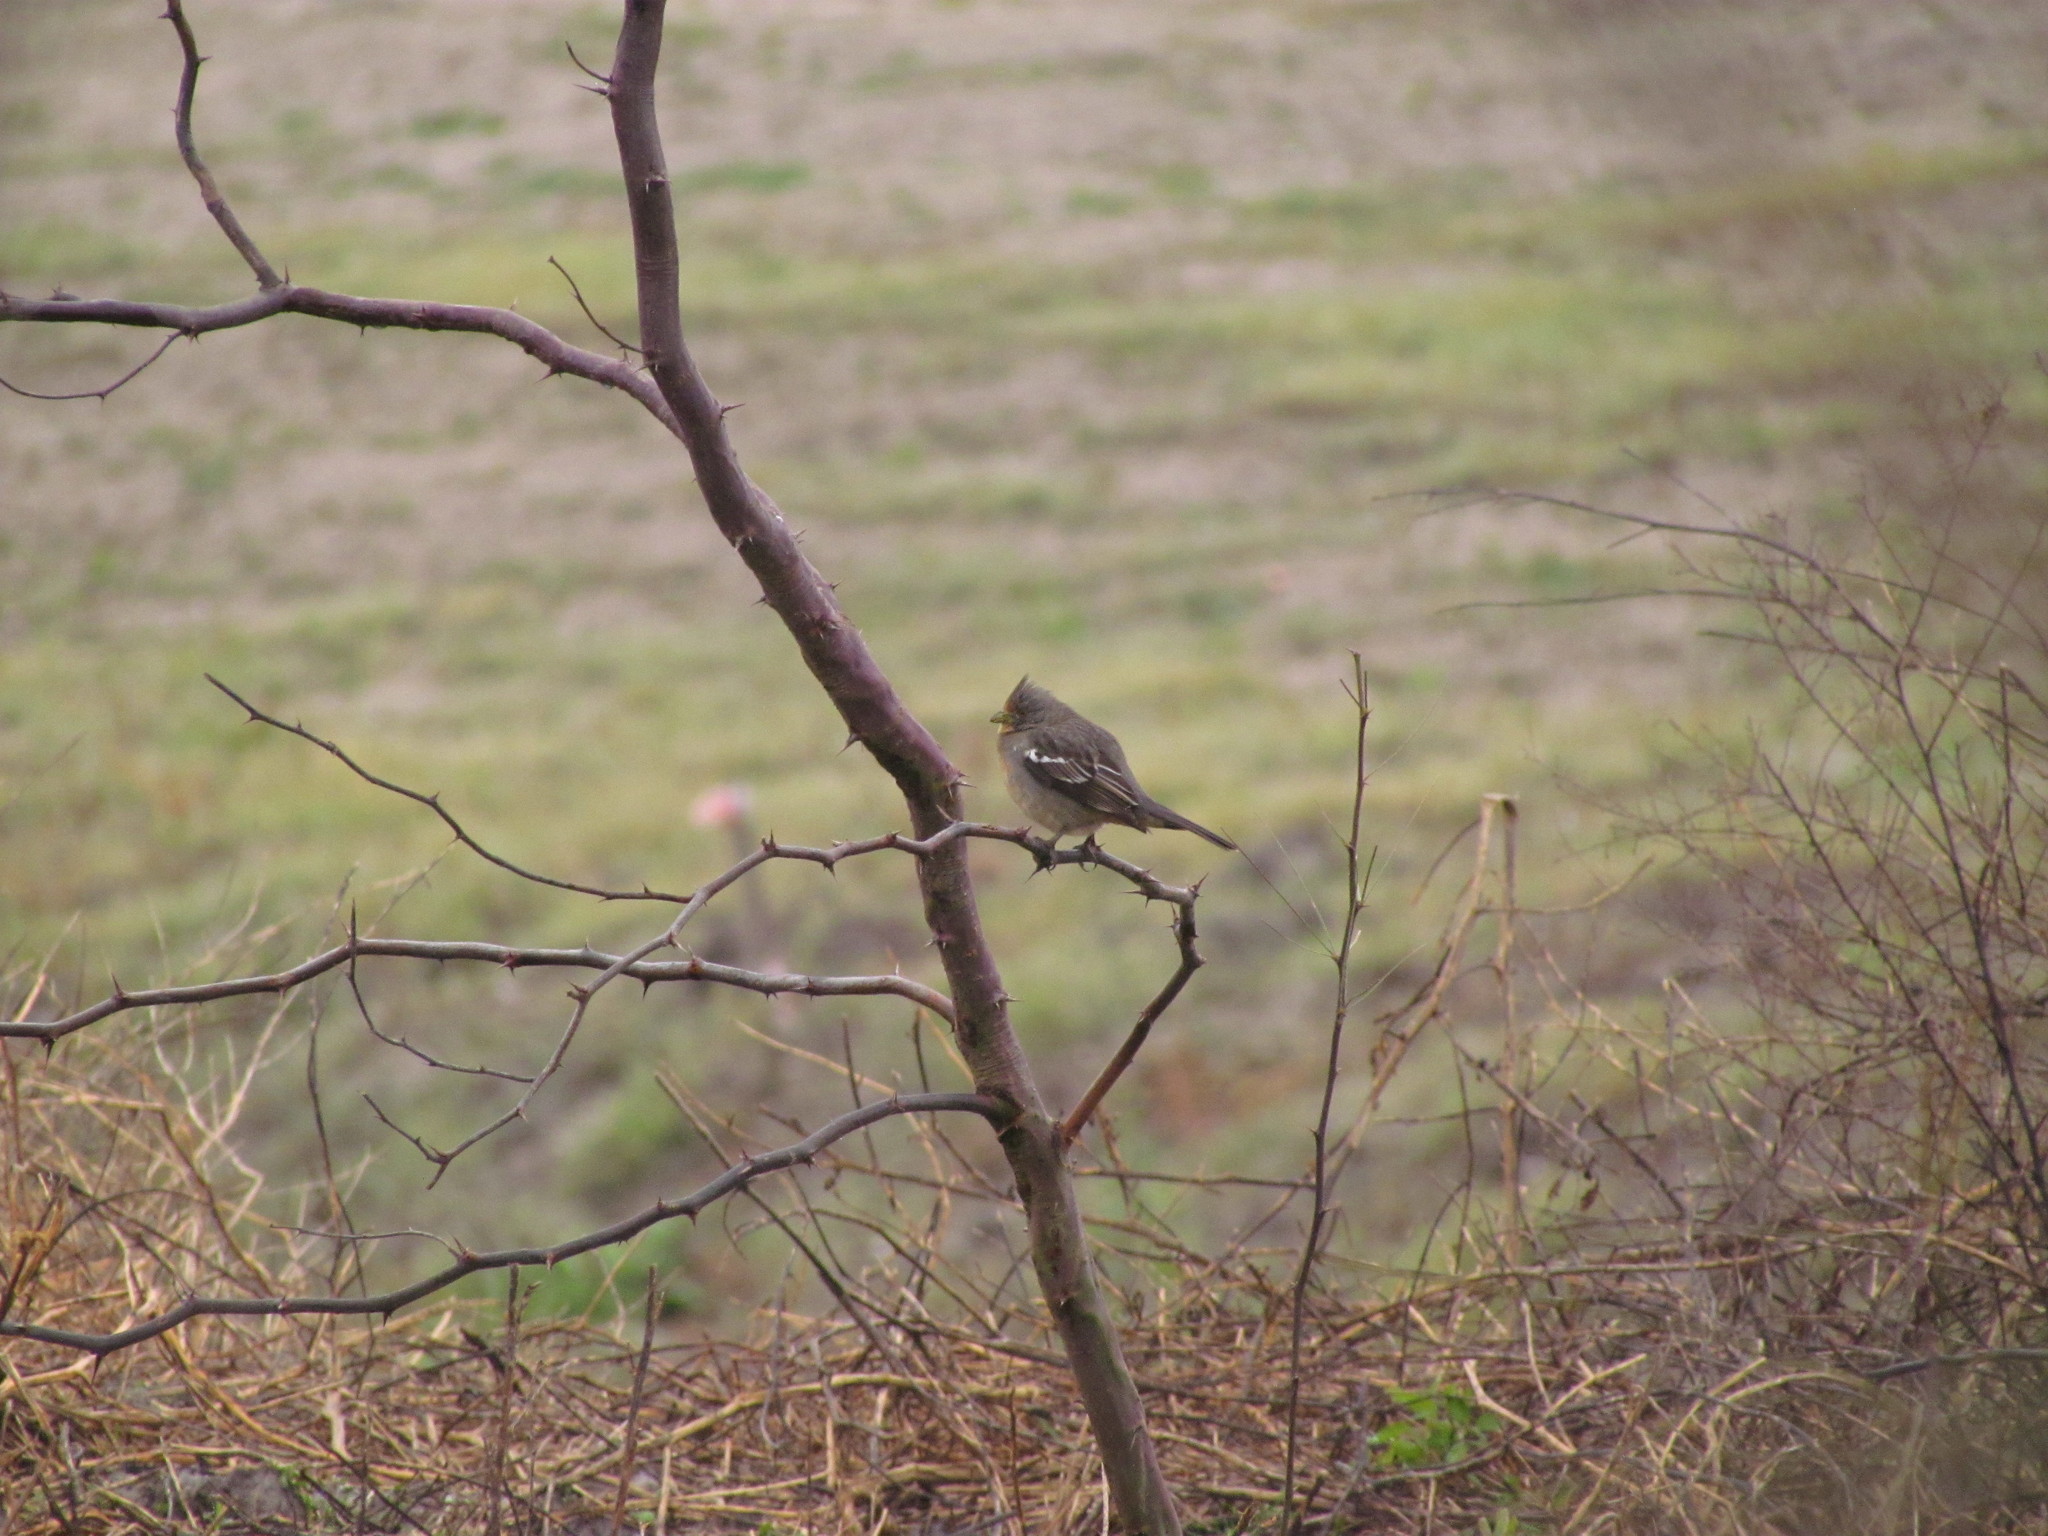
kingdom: Animalia
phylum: Chordata
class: Aves
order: Passeriformes
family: Cotingidae
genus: Phytotoma
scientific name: Phytotoma rutila
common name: White-tipped plantcutter
